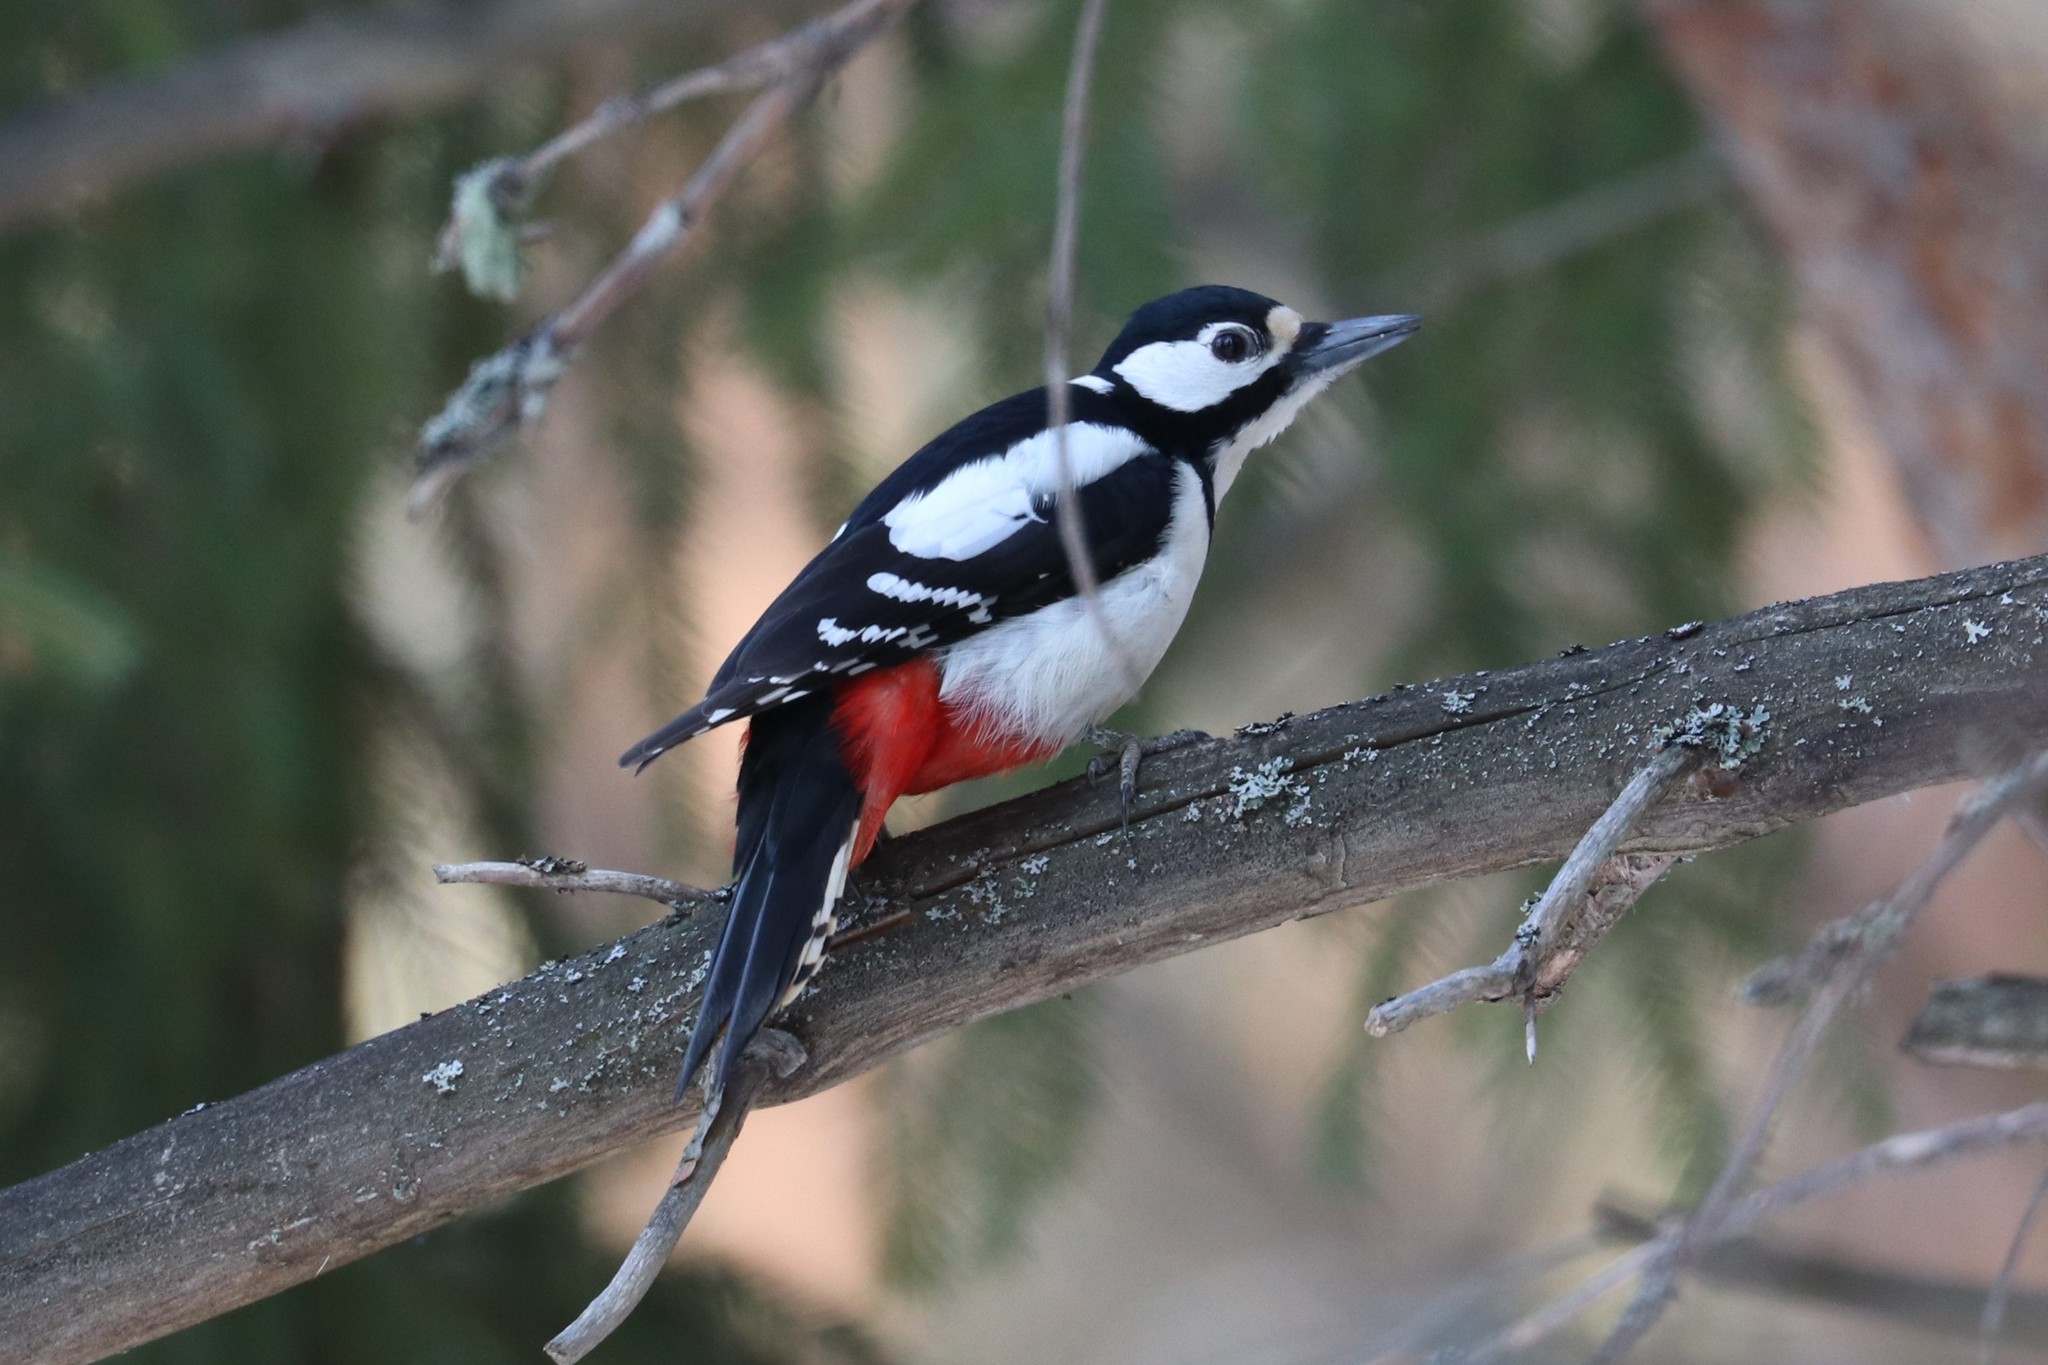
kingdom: Animalia
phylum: Chordata
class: Aves
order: Piciformes
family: Picidae
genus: Dendrocopos
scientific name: Dendrocopos major
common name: Great spotted woodpecker
